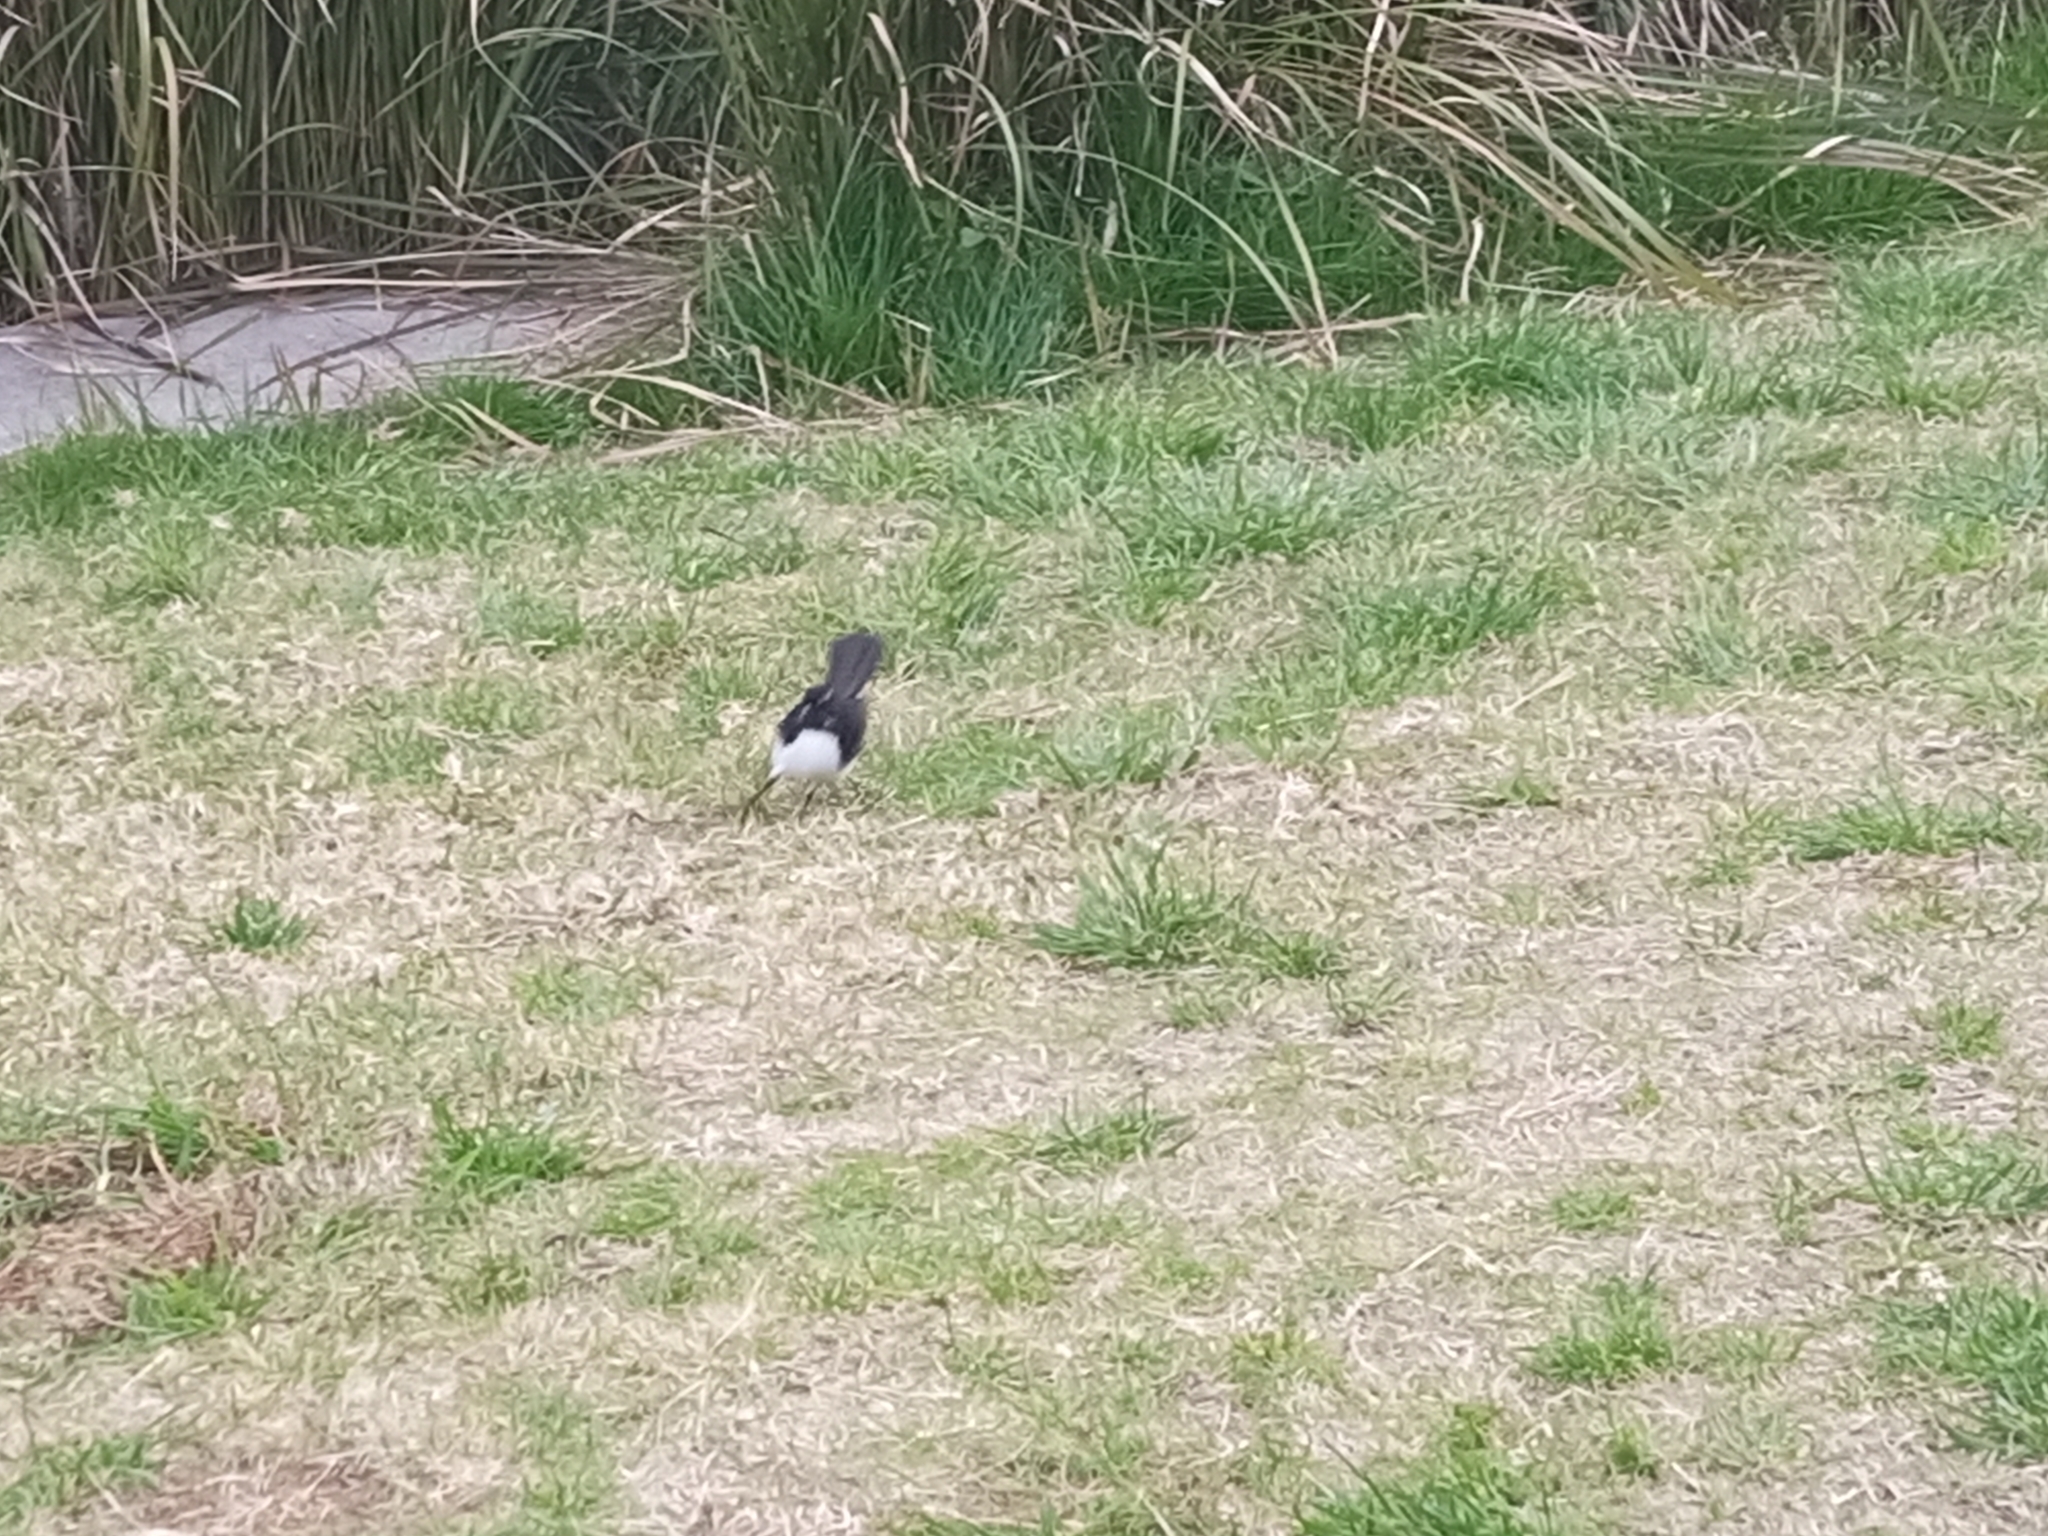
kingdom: Animalia
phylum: Chordata
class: Aves
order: Passeriformes
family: Rhipiduridae
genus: Rhipidura
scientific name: Rhipidura leucophrys
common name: Willie wagtail
